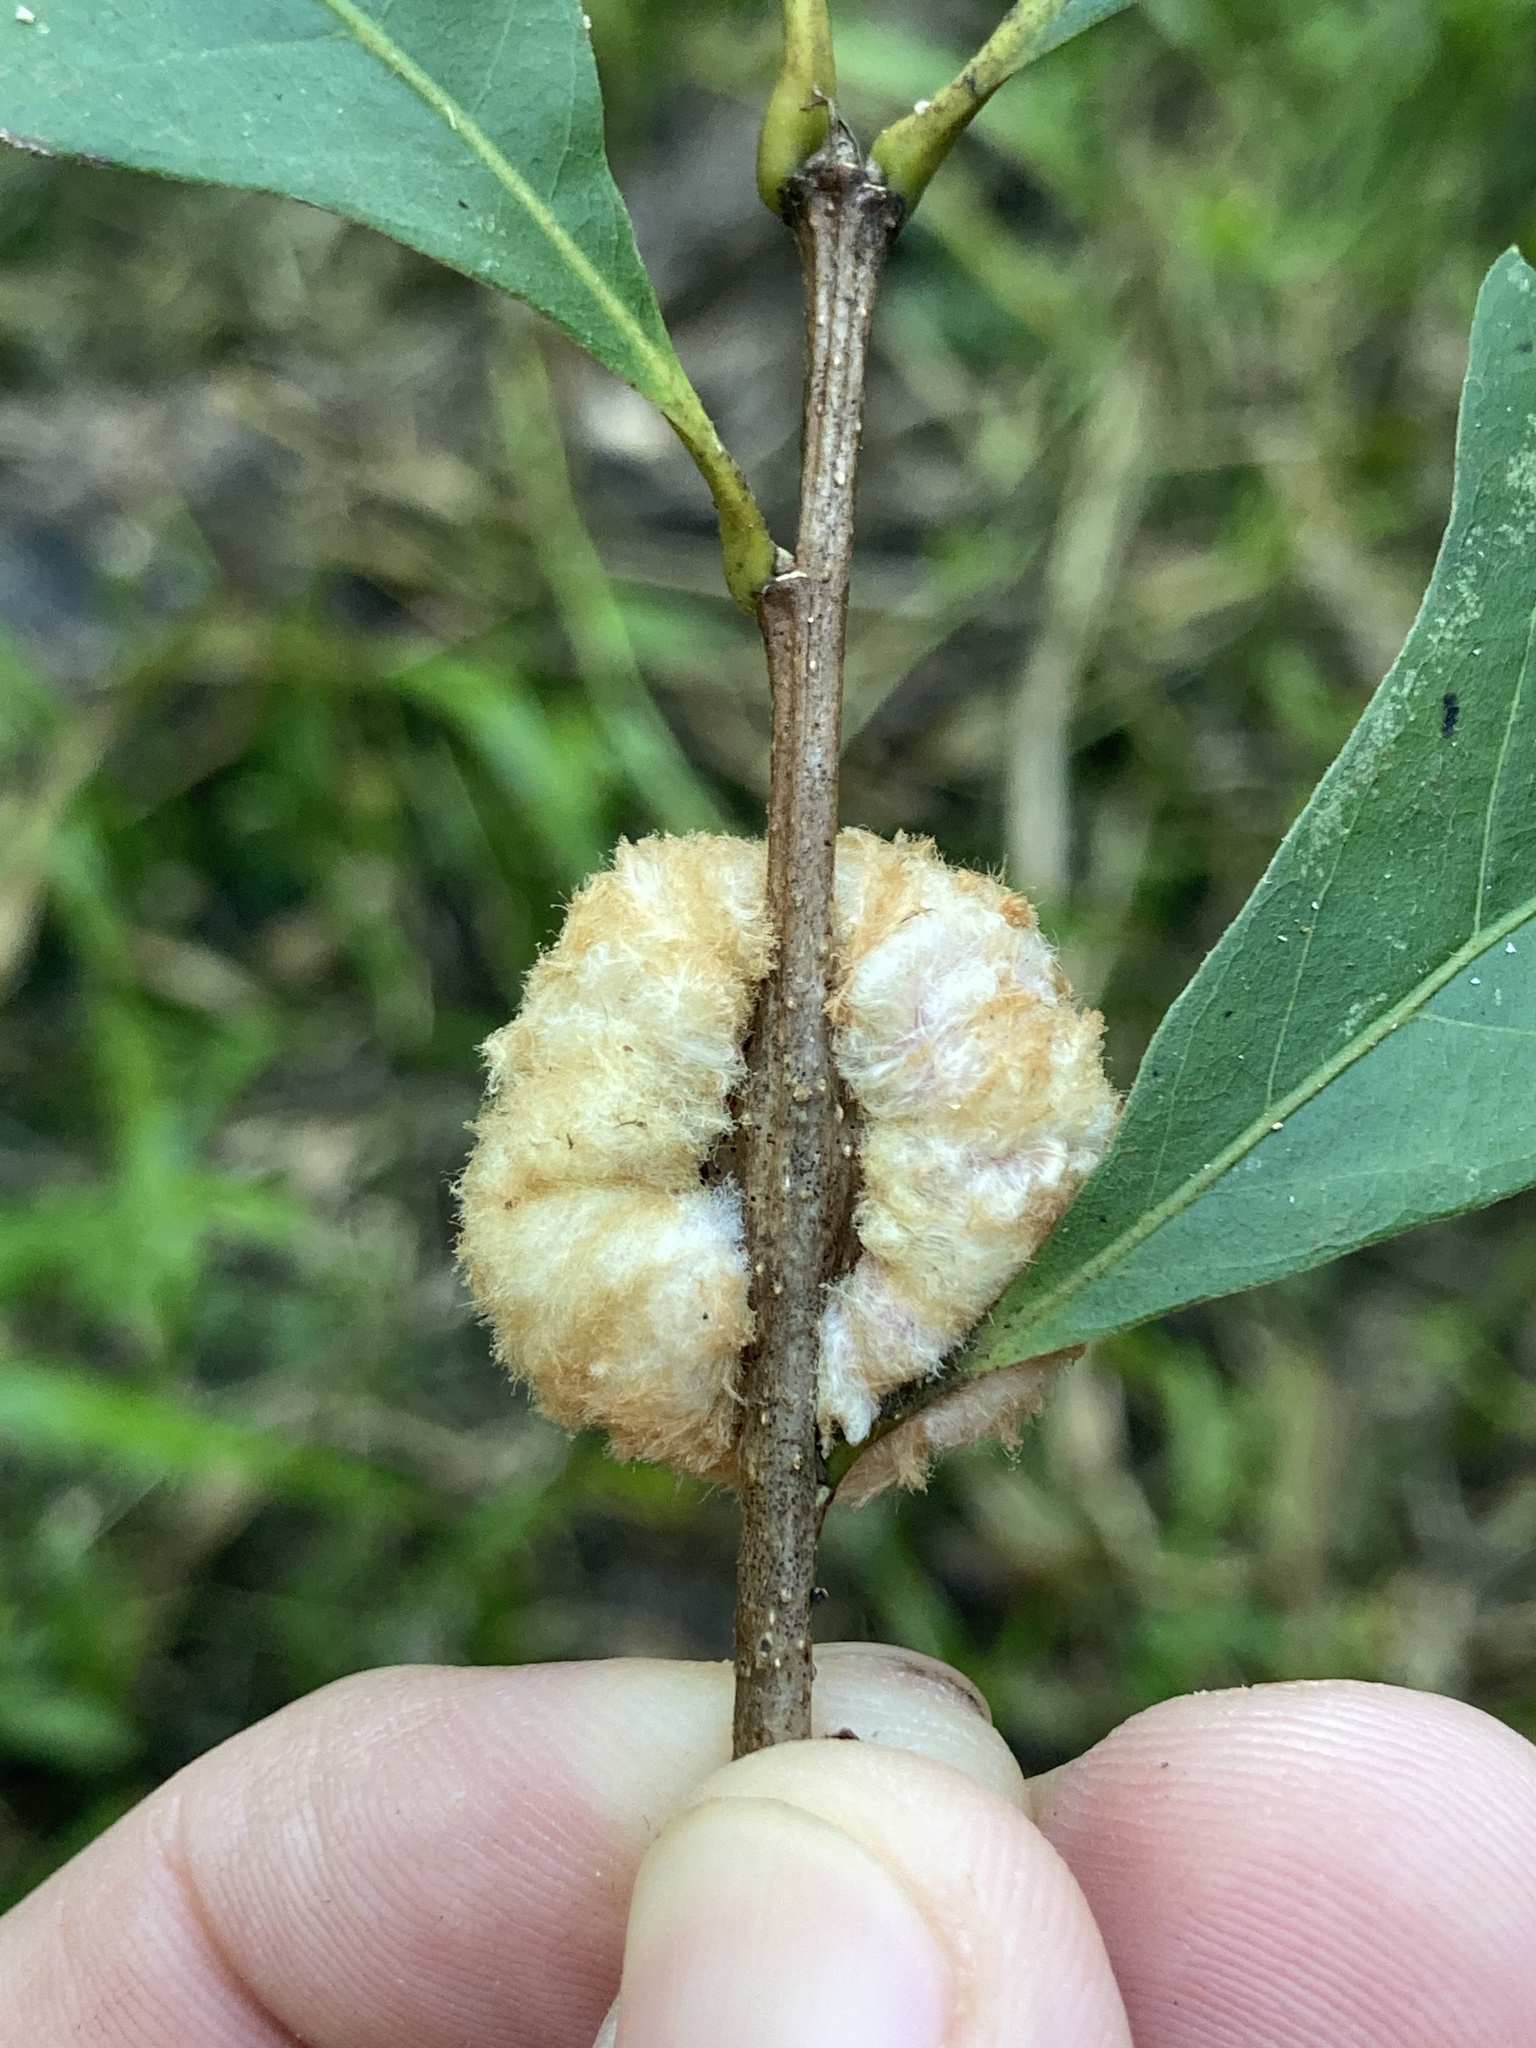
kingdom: Animalia
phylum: Arthropoda
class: Insecta
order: Hymenoptera
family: Cynipidae
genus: Striatoandricus
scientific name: Striatoandricus aciculatus
